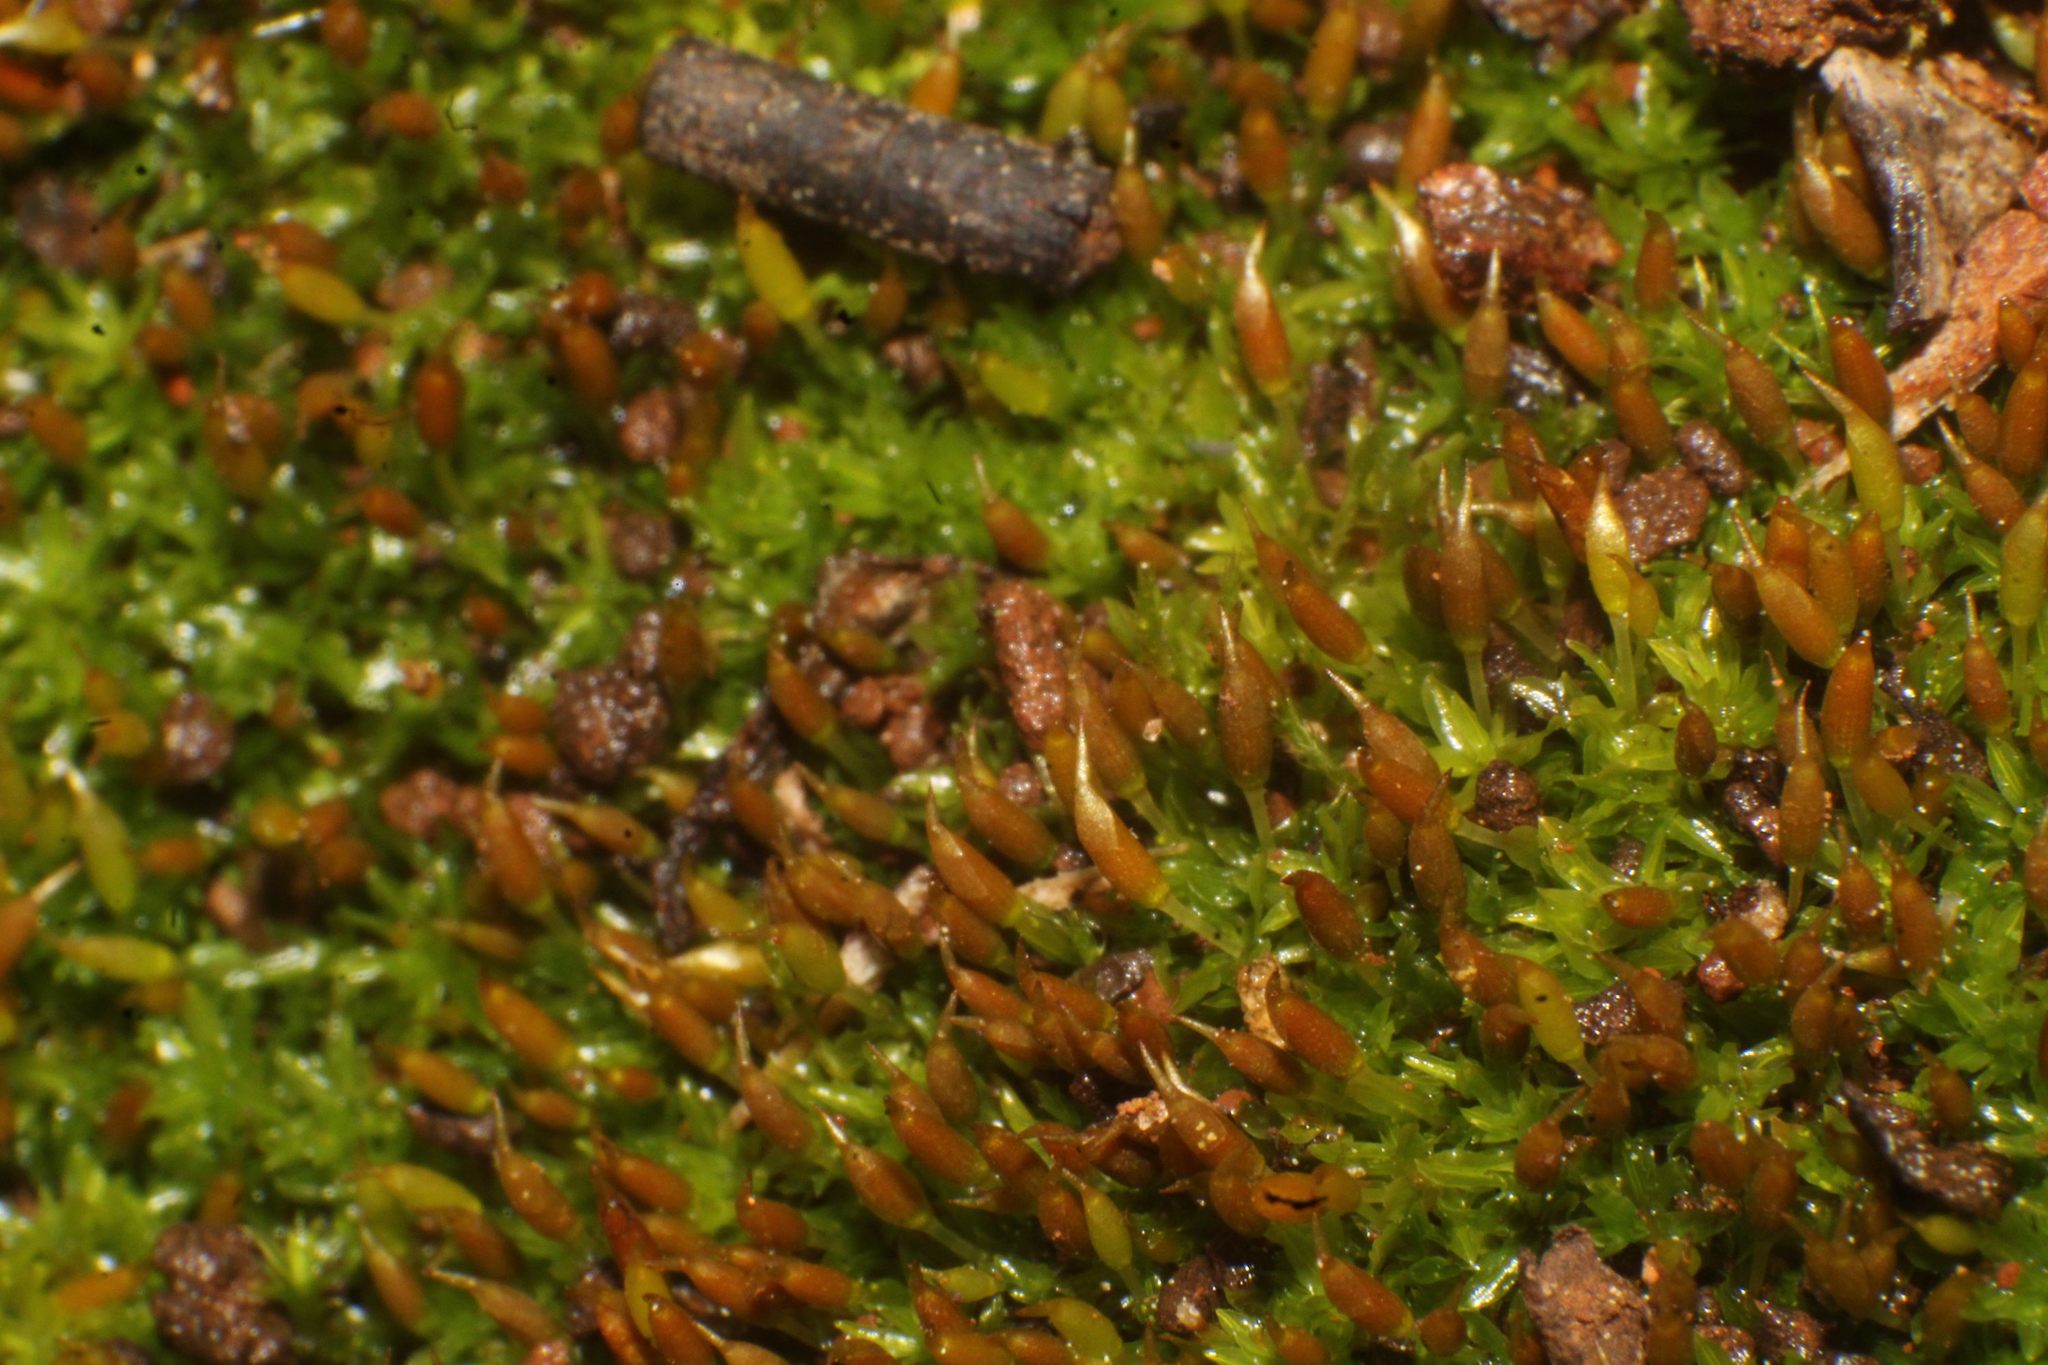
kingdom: Plantae
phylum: Bryophyta
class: Bryopsida
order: Pottiales
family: Pottiaceae
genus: Tetrapterum
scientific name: Tetrapterum cylindricum
